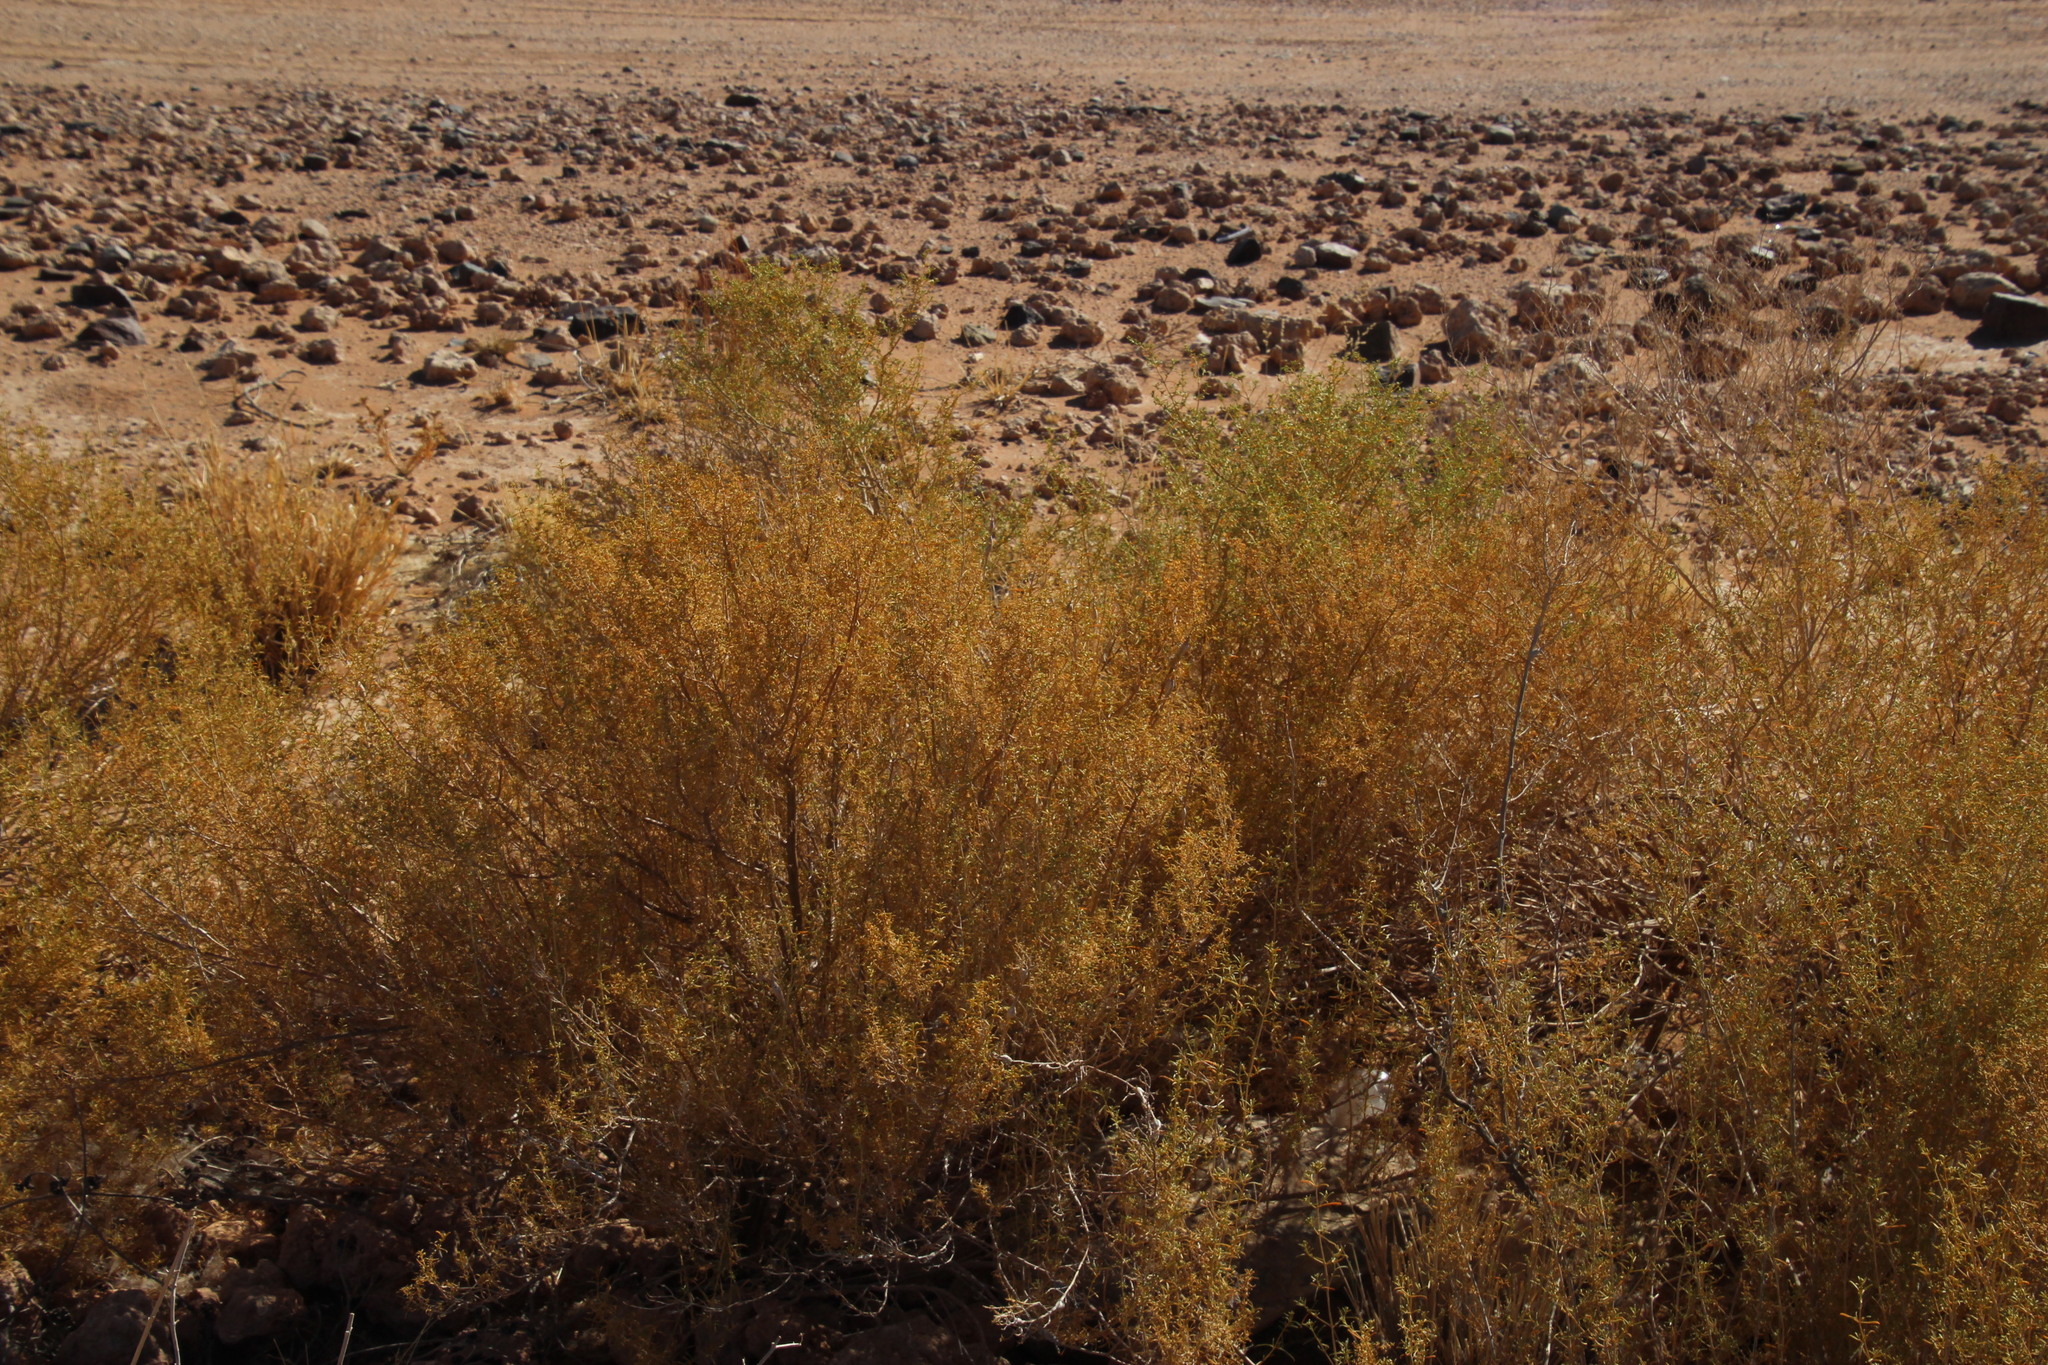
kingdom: Plantae
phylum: Tracheophyta
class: Magnoliopsida
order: Caryophyllales
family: Aizoaceae
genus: Aizoon
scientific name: Aizoon africanum
